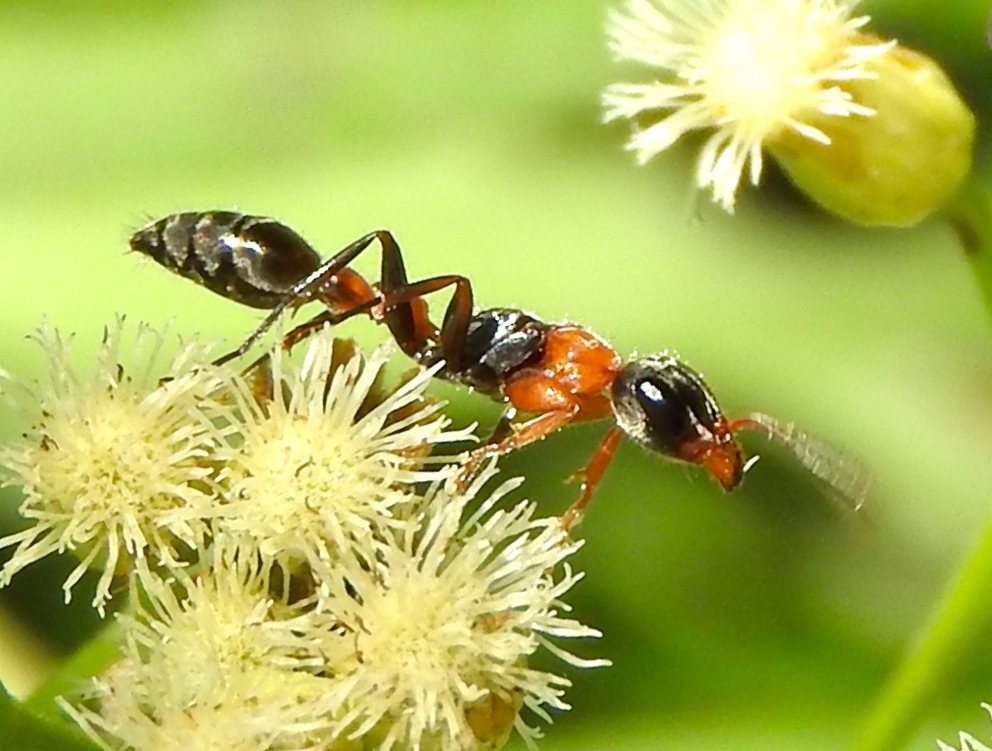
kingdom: Animalia
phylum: Arthropoda
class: Insecta
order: Hymenoptera
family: Formicidae
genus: Pseudomyrmex
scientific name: Pseudomyrmex gracilis
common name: Graceful twig ant
